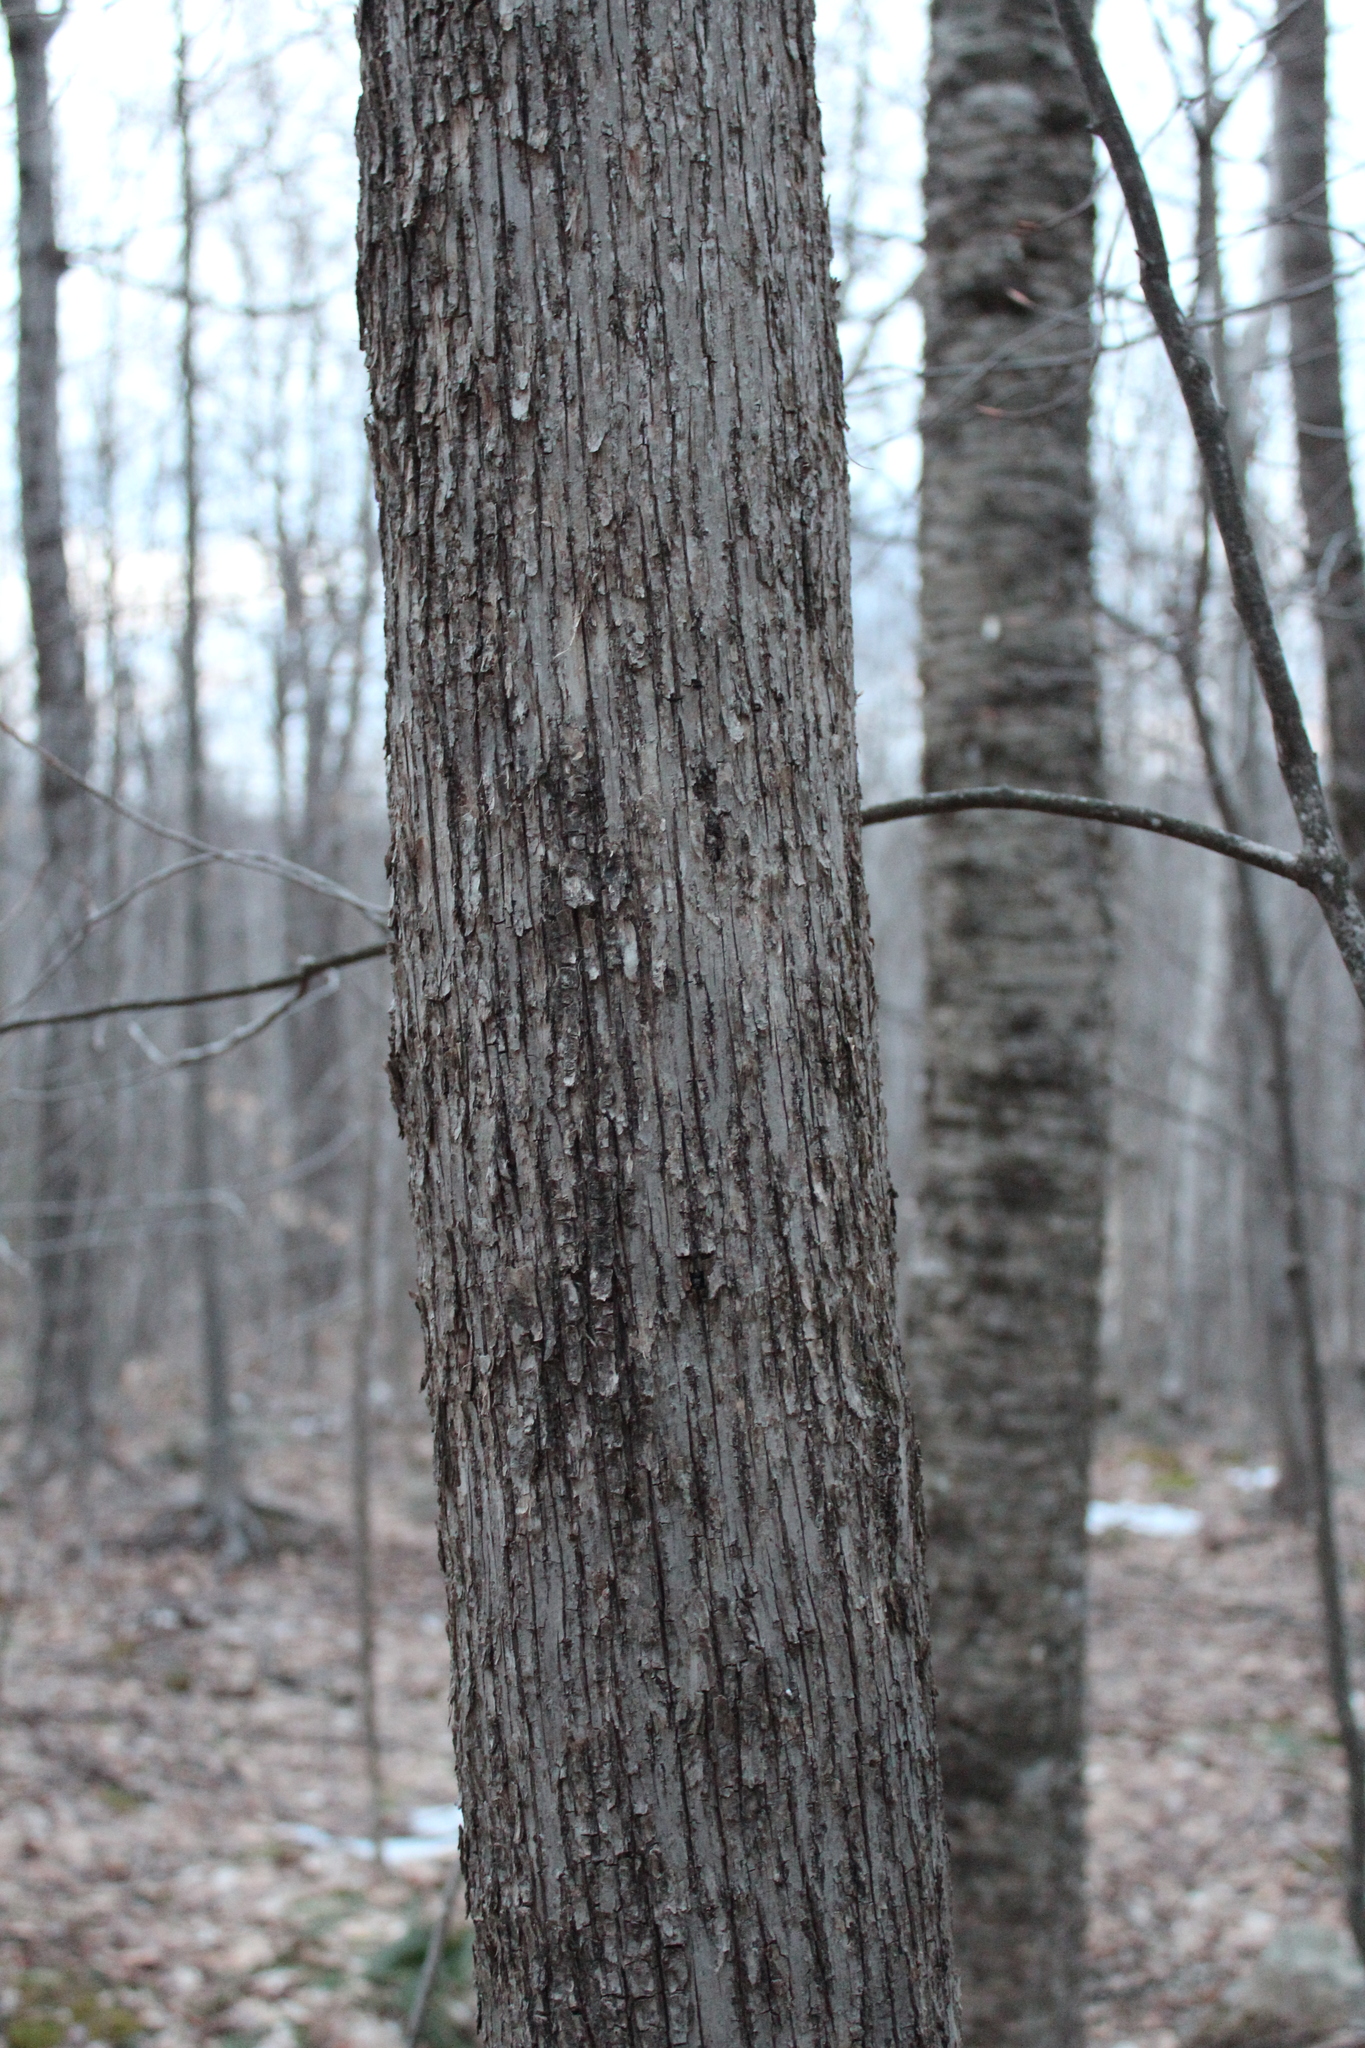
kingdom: Plantae
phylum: Tracheophyta
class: Magnoliopsida
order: Fagales
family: Betulaceae
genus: Ostrya
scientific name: Ostrya virginiana
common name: Ironwood
